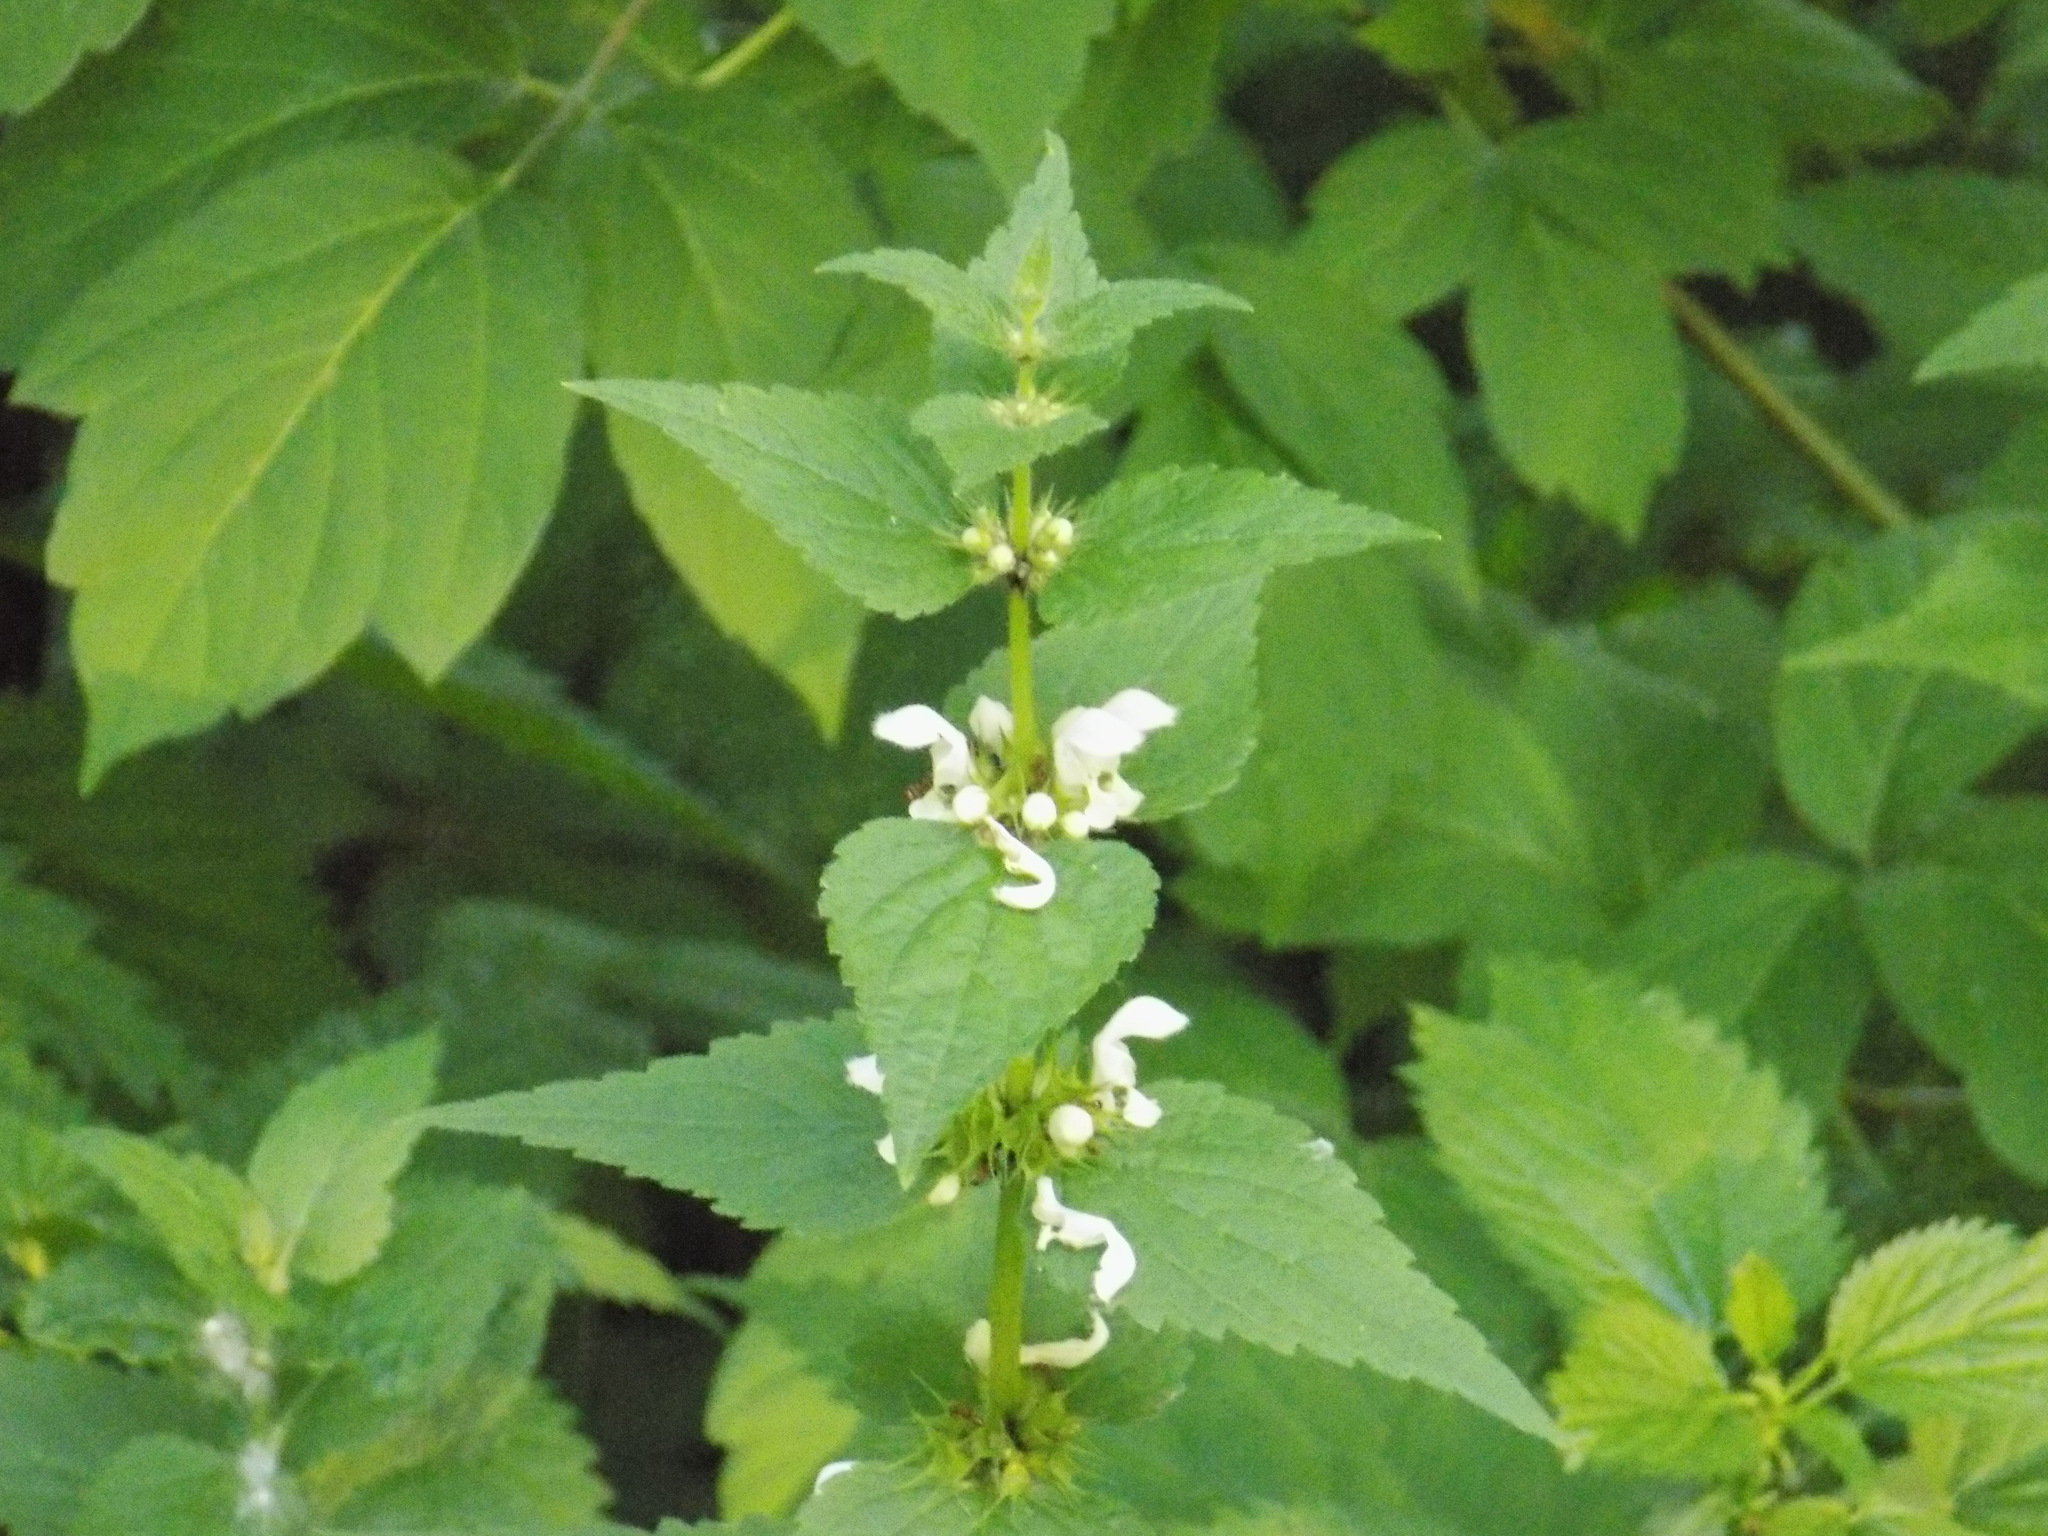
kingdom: Plantae
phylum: Tracheophyta
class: Magnoliopsida
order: Lamiales
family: Lamiaceae
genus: Lamium
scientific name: Lamium album
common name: White dead-nettle
